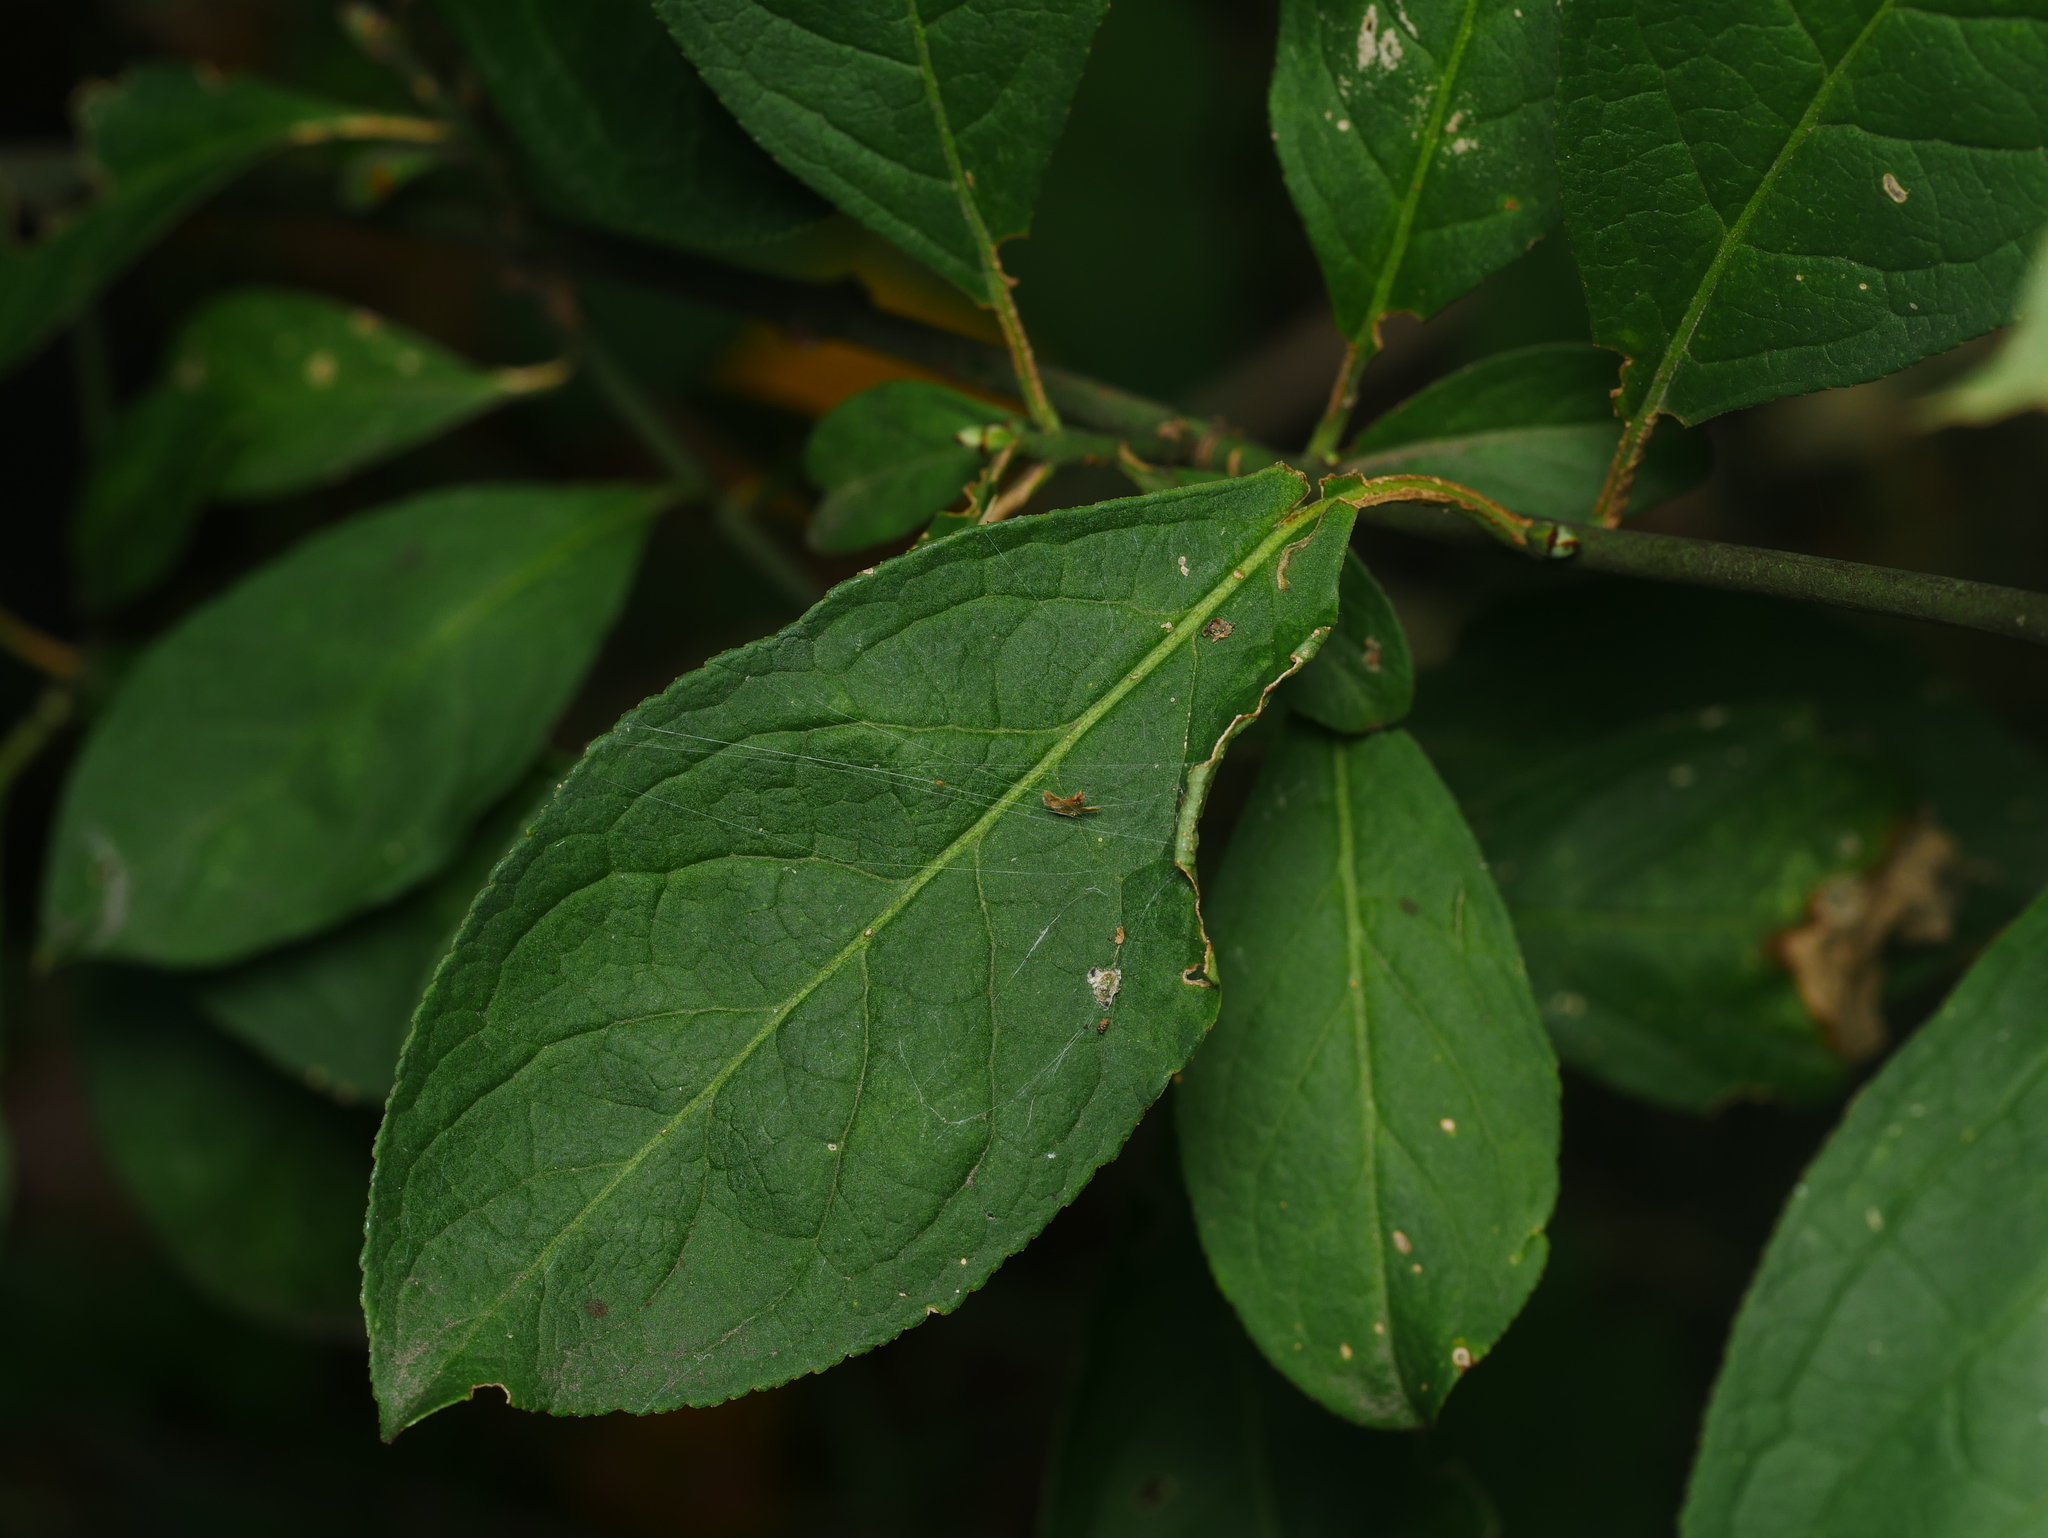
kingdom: Plantae
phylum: Tracheophyta
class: Magnoliopsida
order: Celastrales
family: Celastraceae
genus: Euonymus
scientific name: Euonymus europaeus
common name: Spindle
